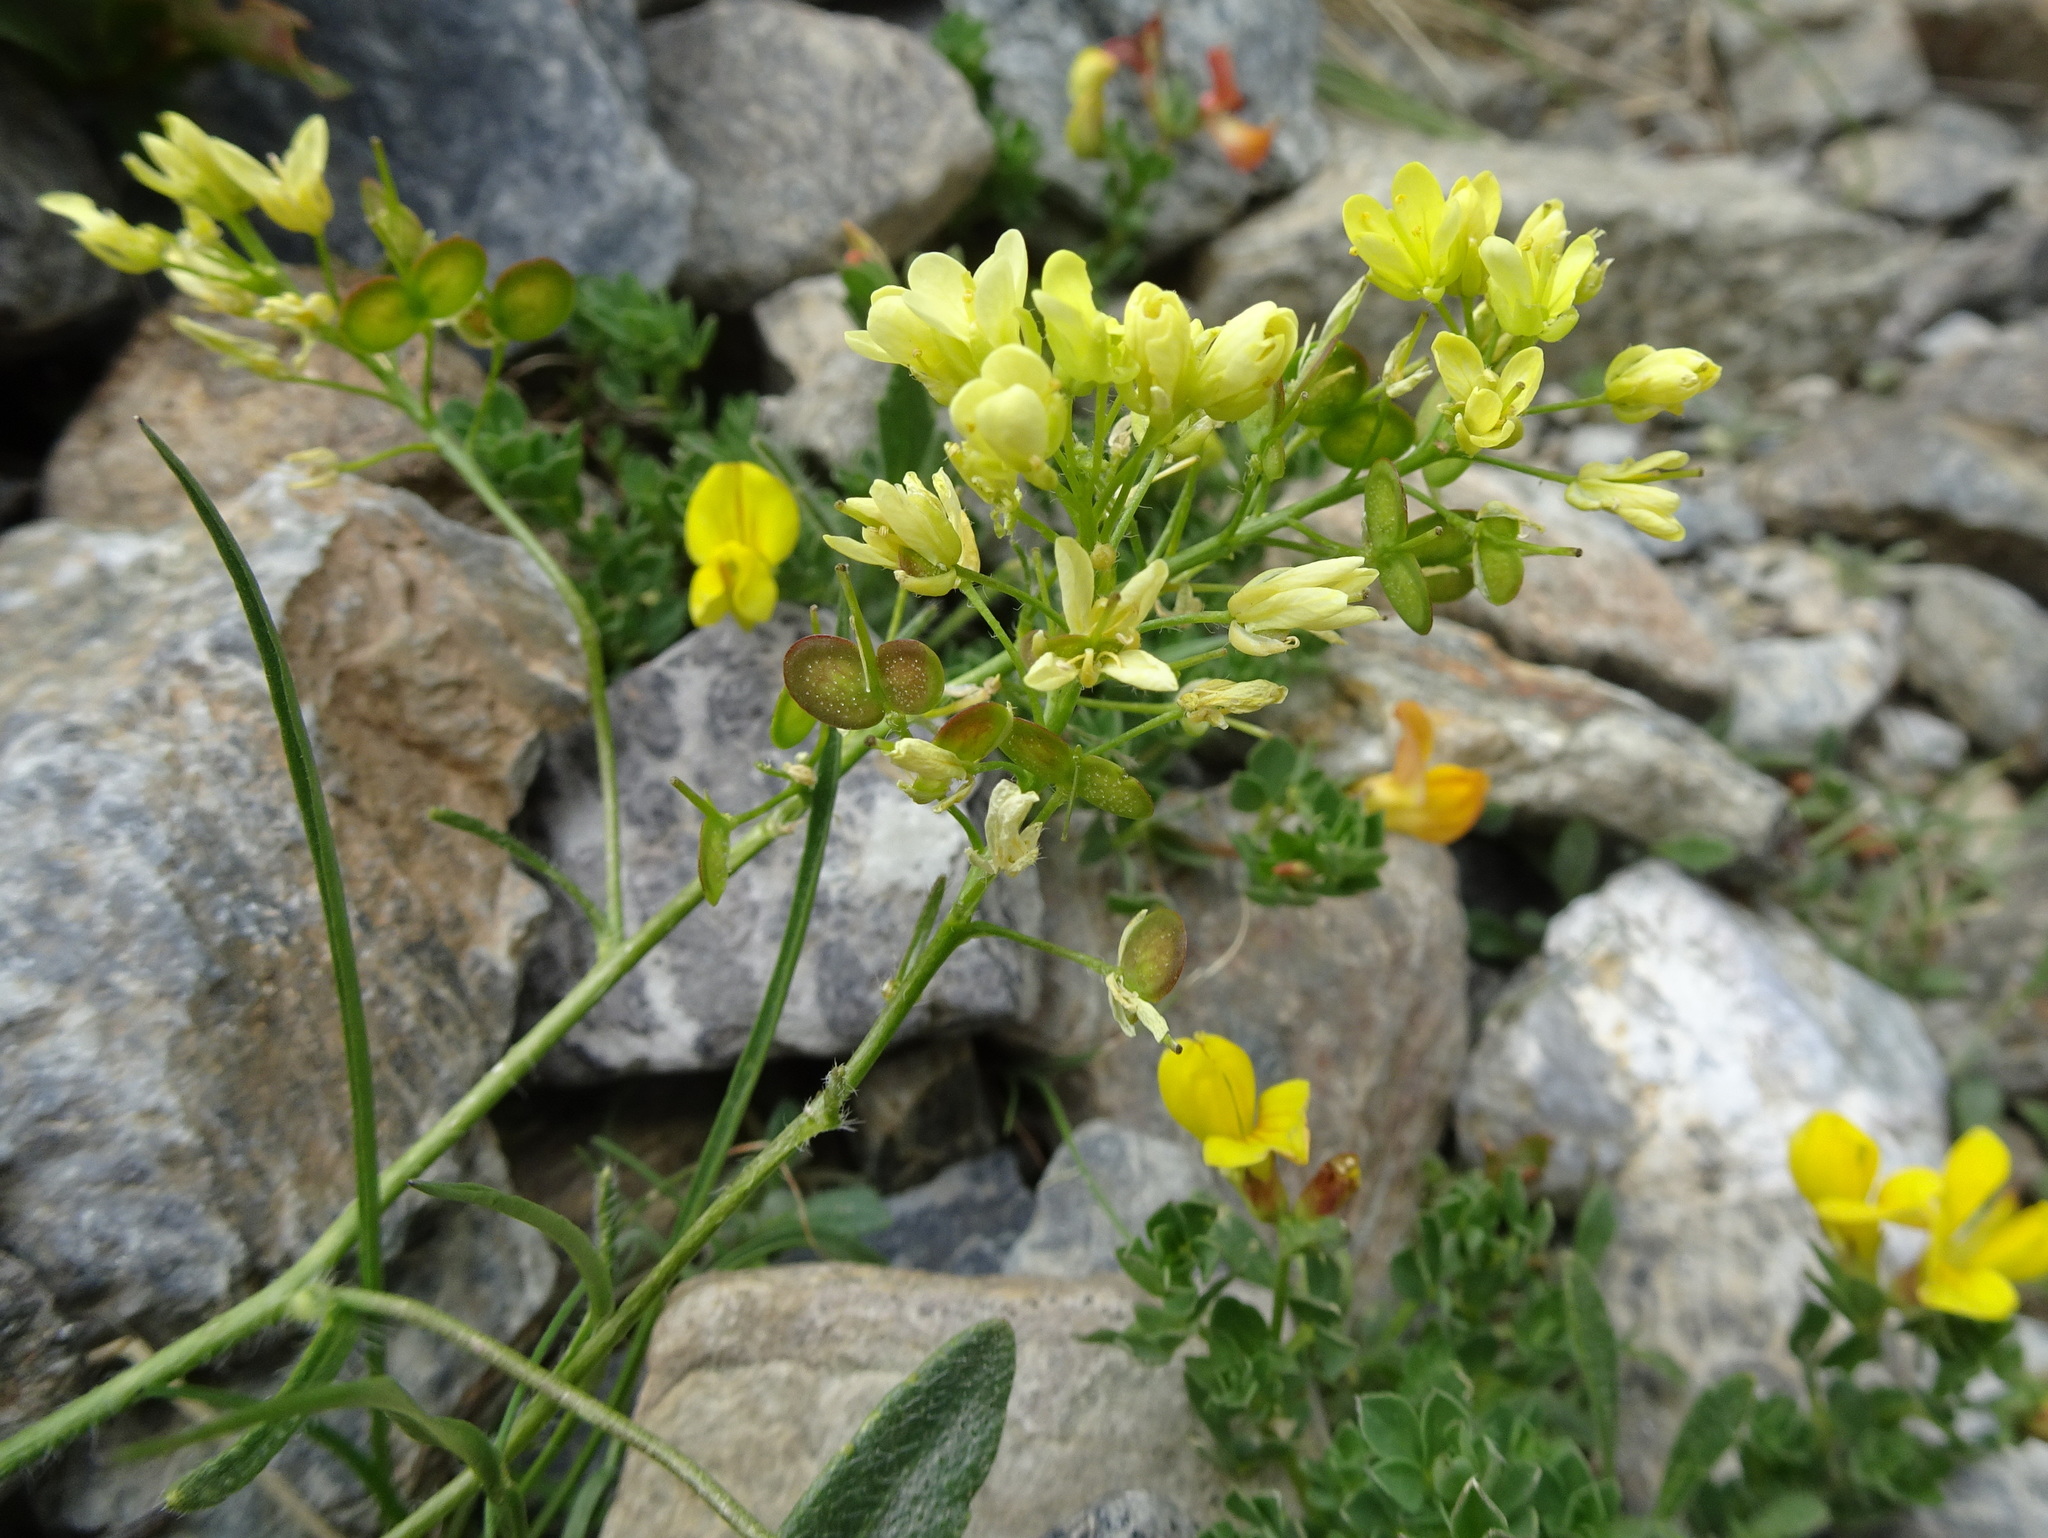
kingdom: Plantae
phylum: Tracheophyta
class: Magnoliopsida
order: Brassicales
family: Brassicaceae
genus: Biscutella
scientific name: Biscutella laevigata
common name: Buckler mustard
